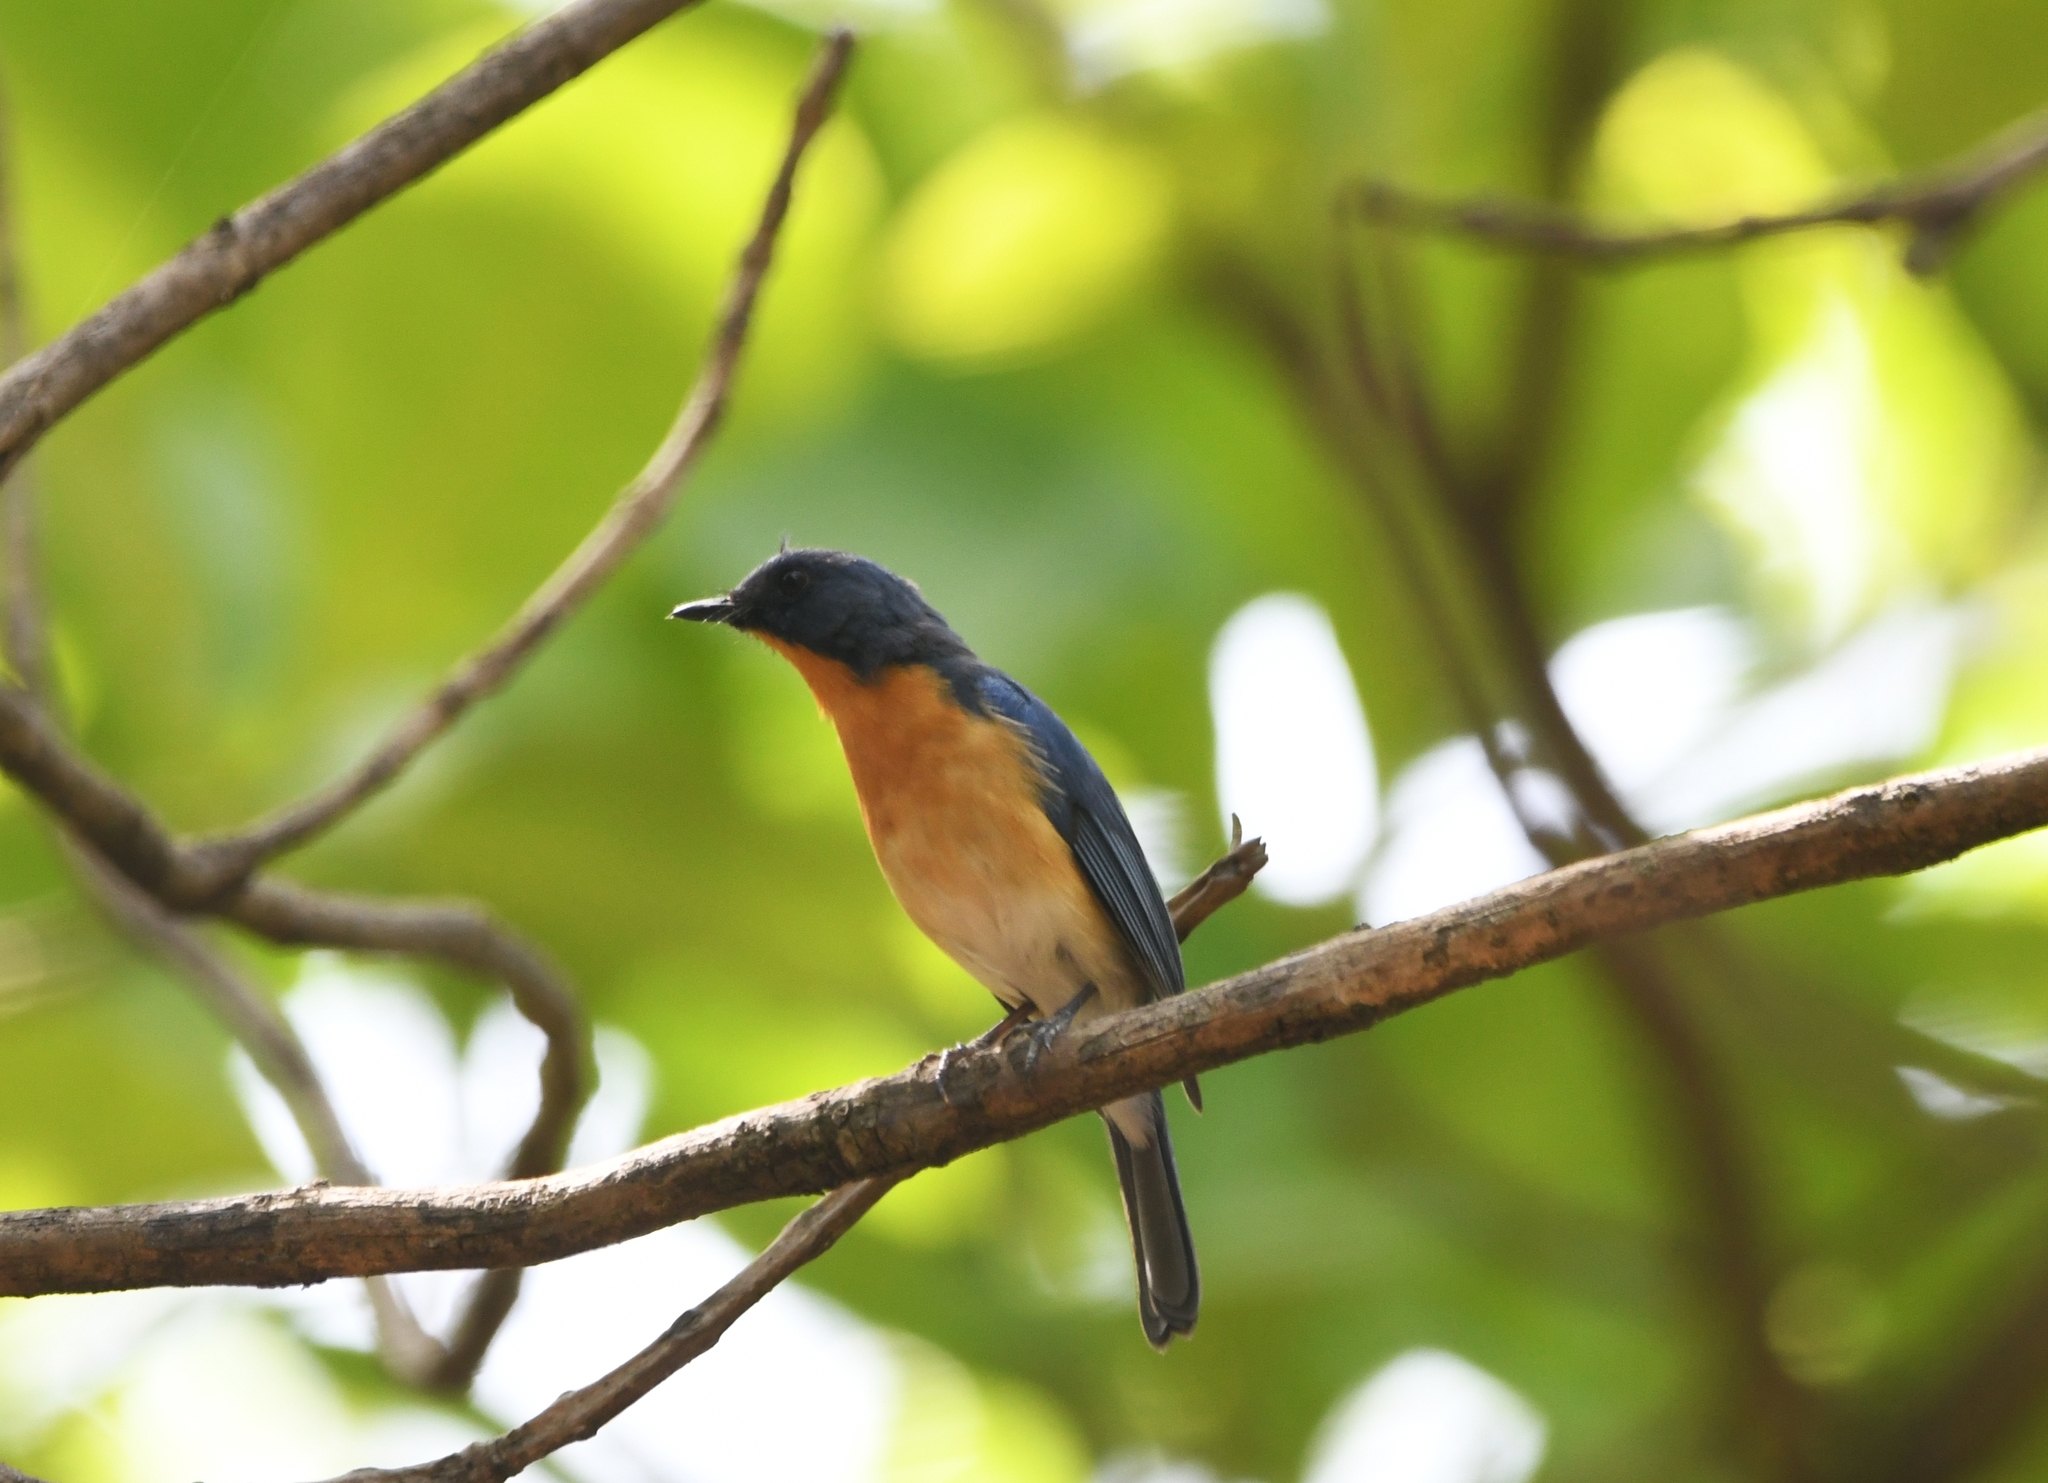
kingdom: Animalia
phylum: Chordata
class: Aves
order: Passeriformes
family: Muscicapidae
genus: Cyornis
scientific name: Cyornis tickelliae
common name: Tickell's blue flycatcher
